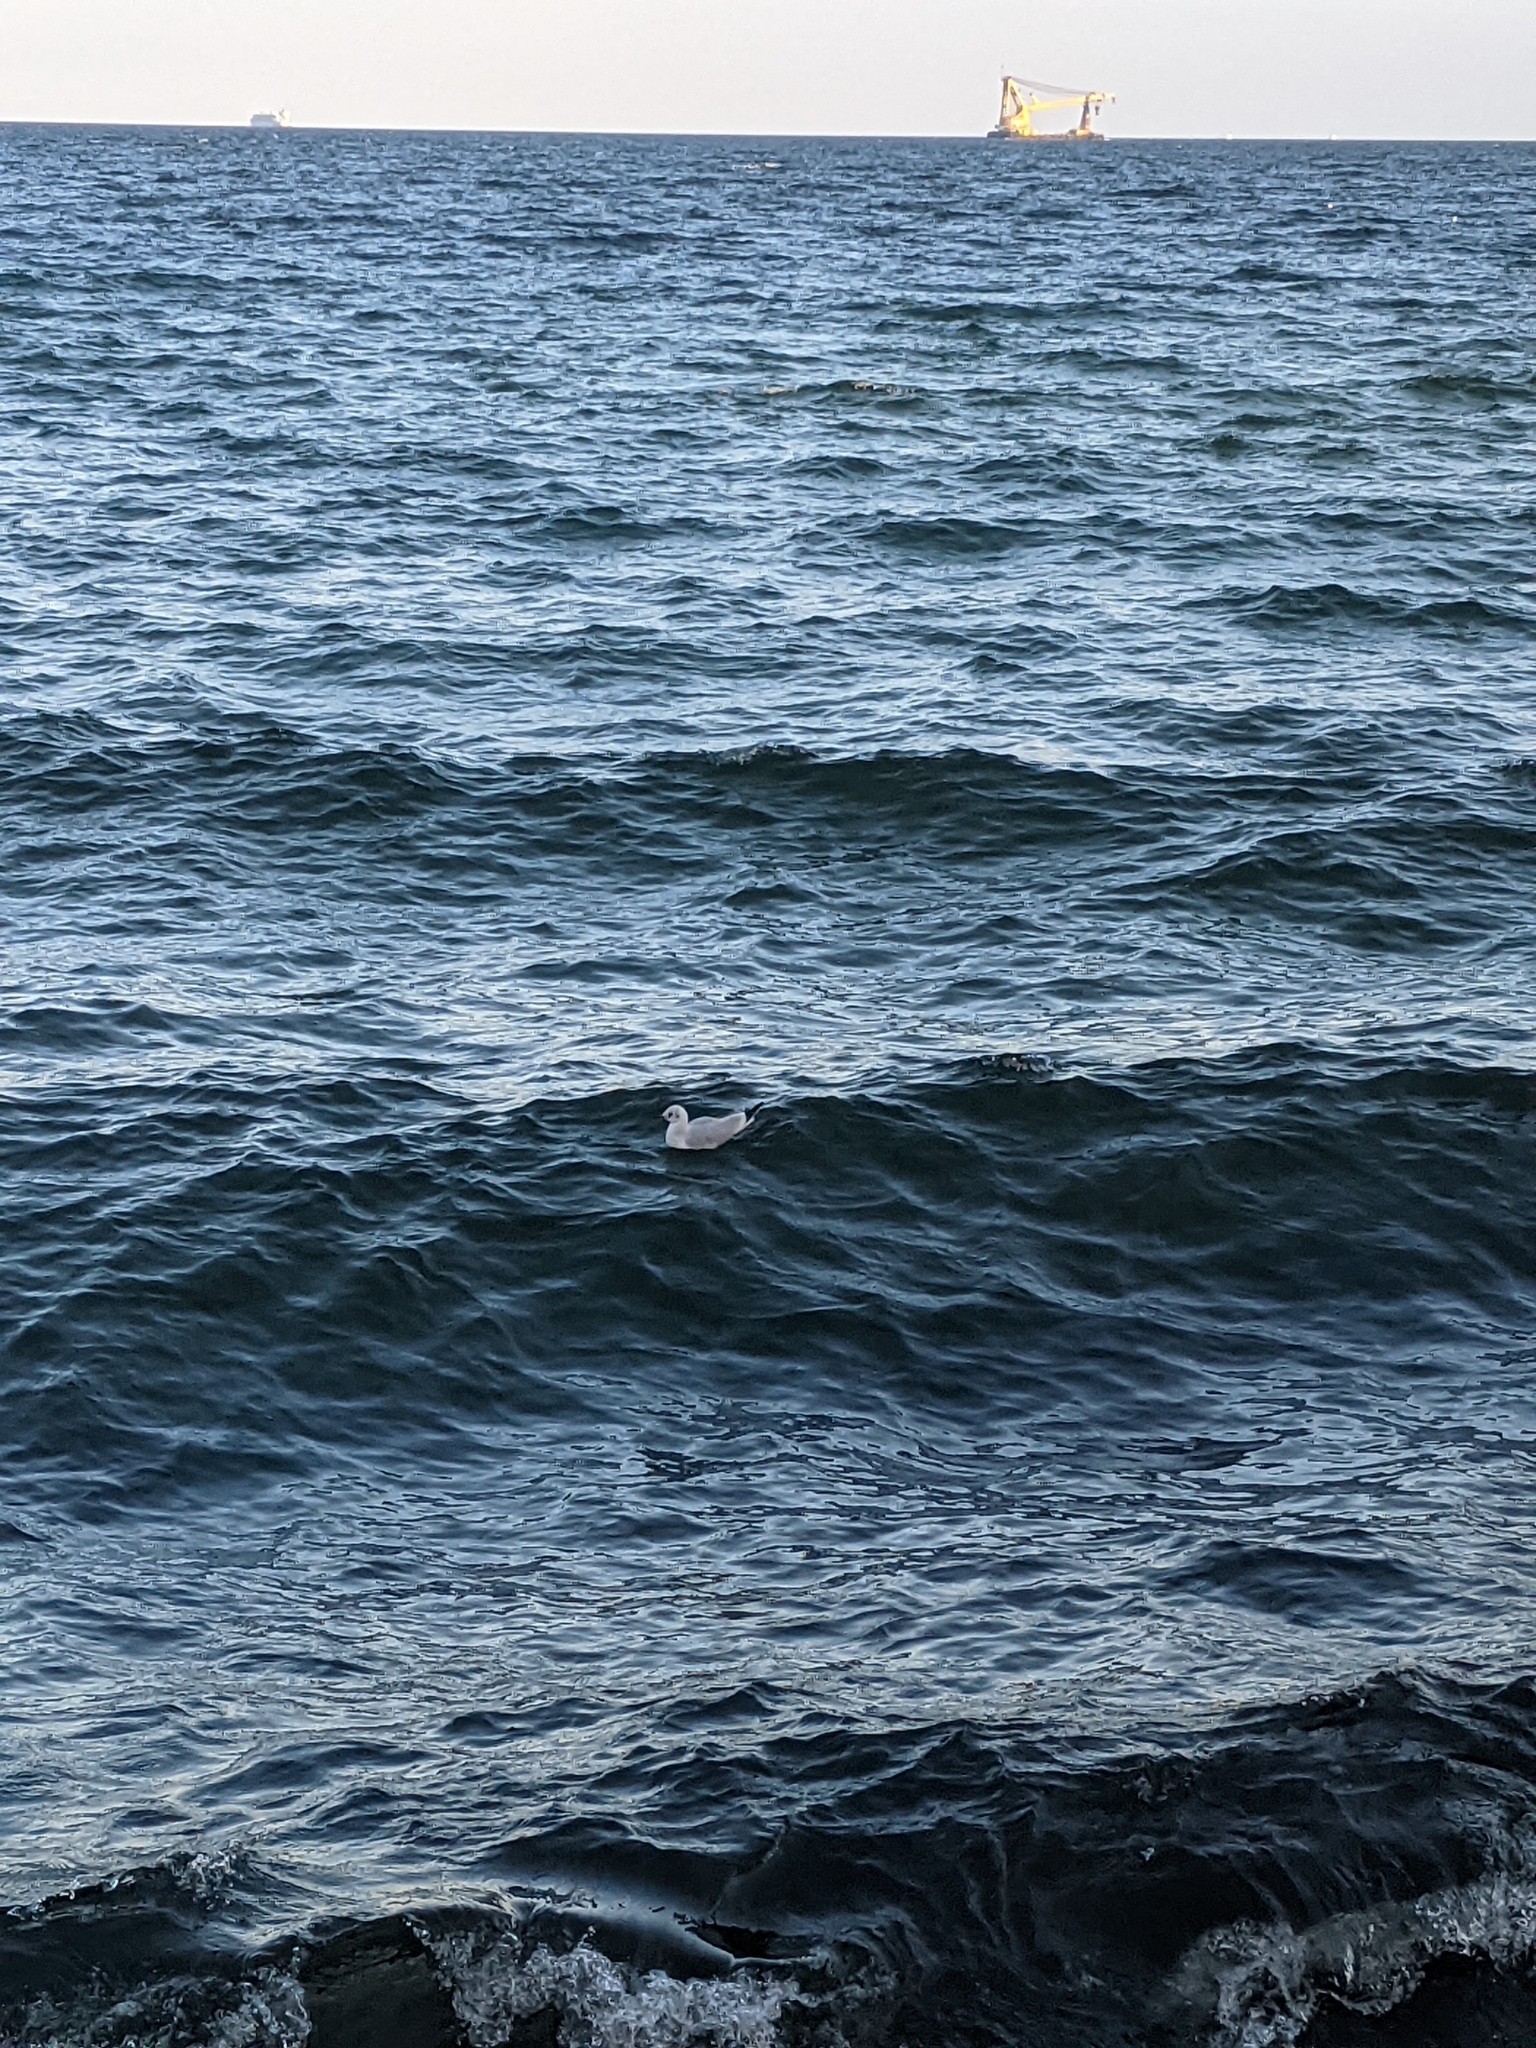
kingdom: Animalia
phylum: Chordata
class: Aves
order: Charadriiformes
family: Laridae
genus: Chroicocephalus
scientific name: Chroicocephalus ridibundus
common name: Black-headed gull
